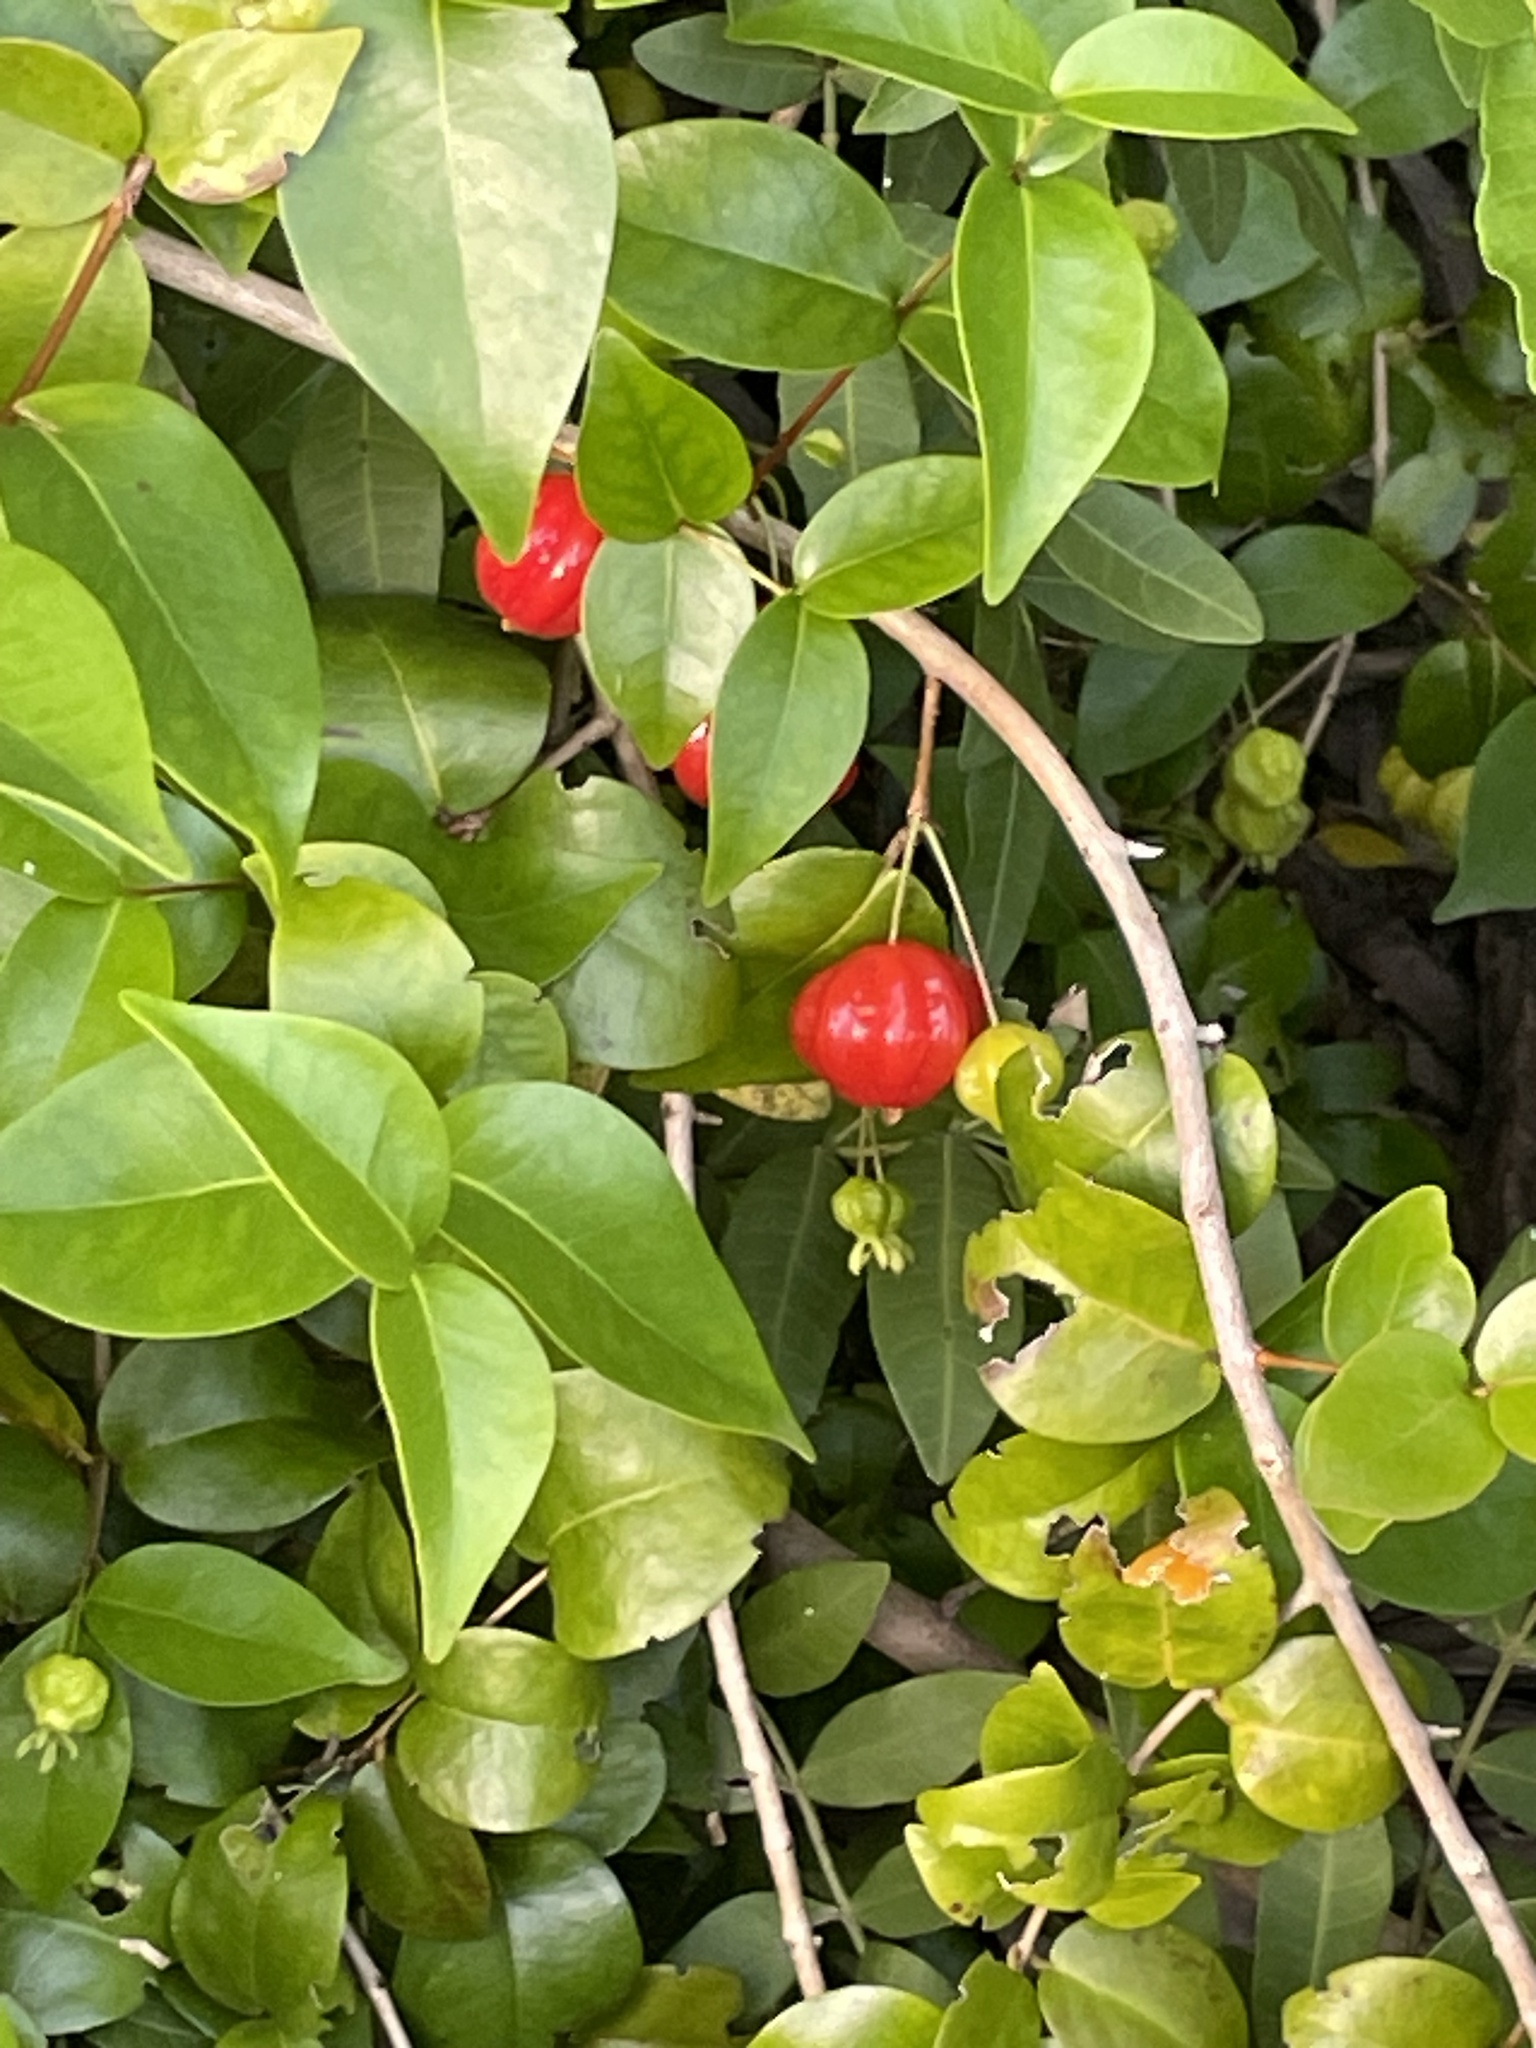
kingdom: Plantae
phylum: Tracheophyta
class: Magnoliopsida
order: Myrtales
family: Myrtaceae
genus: Eugenia
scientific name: Eugenia uniflora
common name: Surinam cherry
